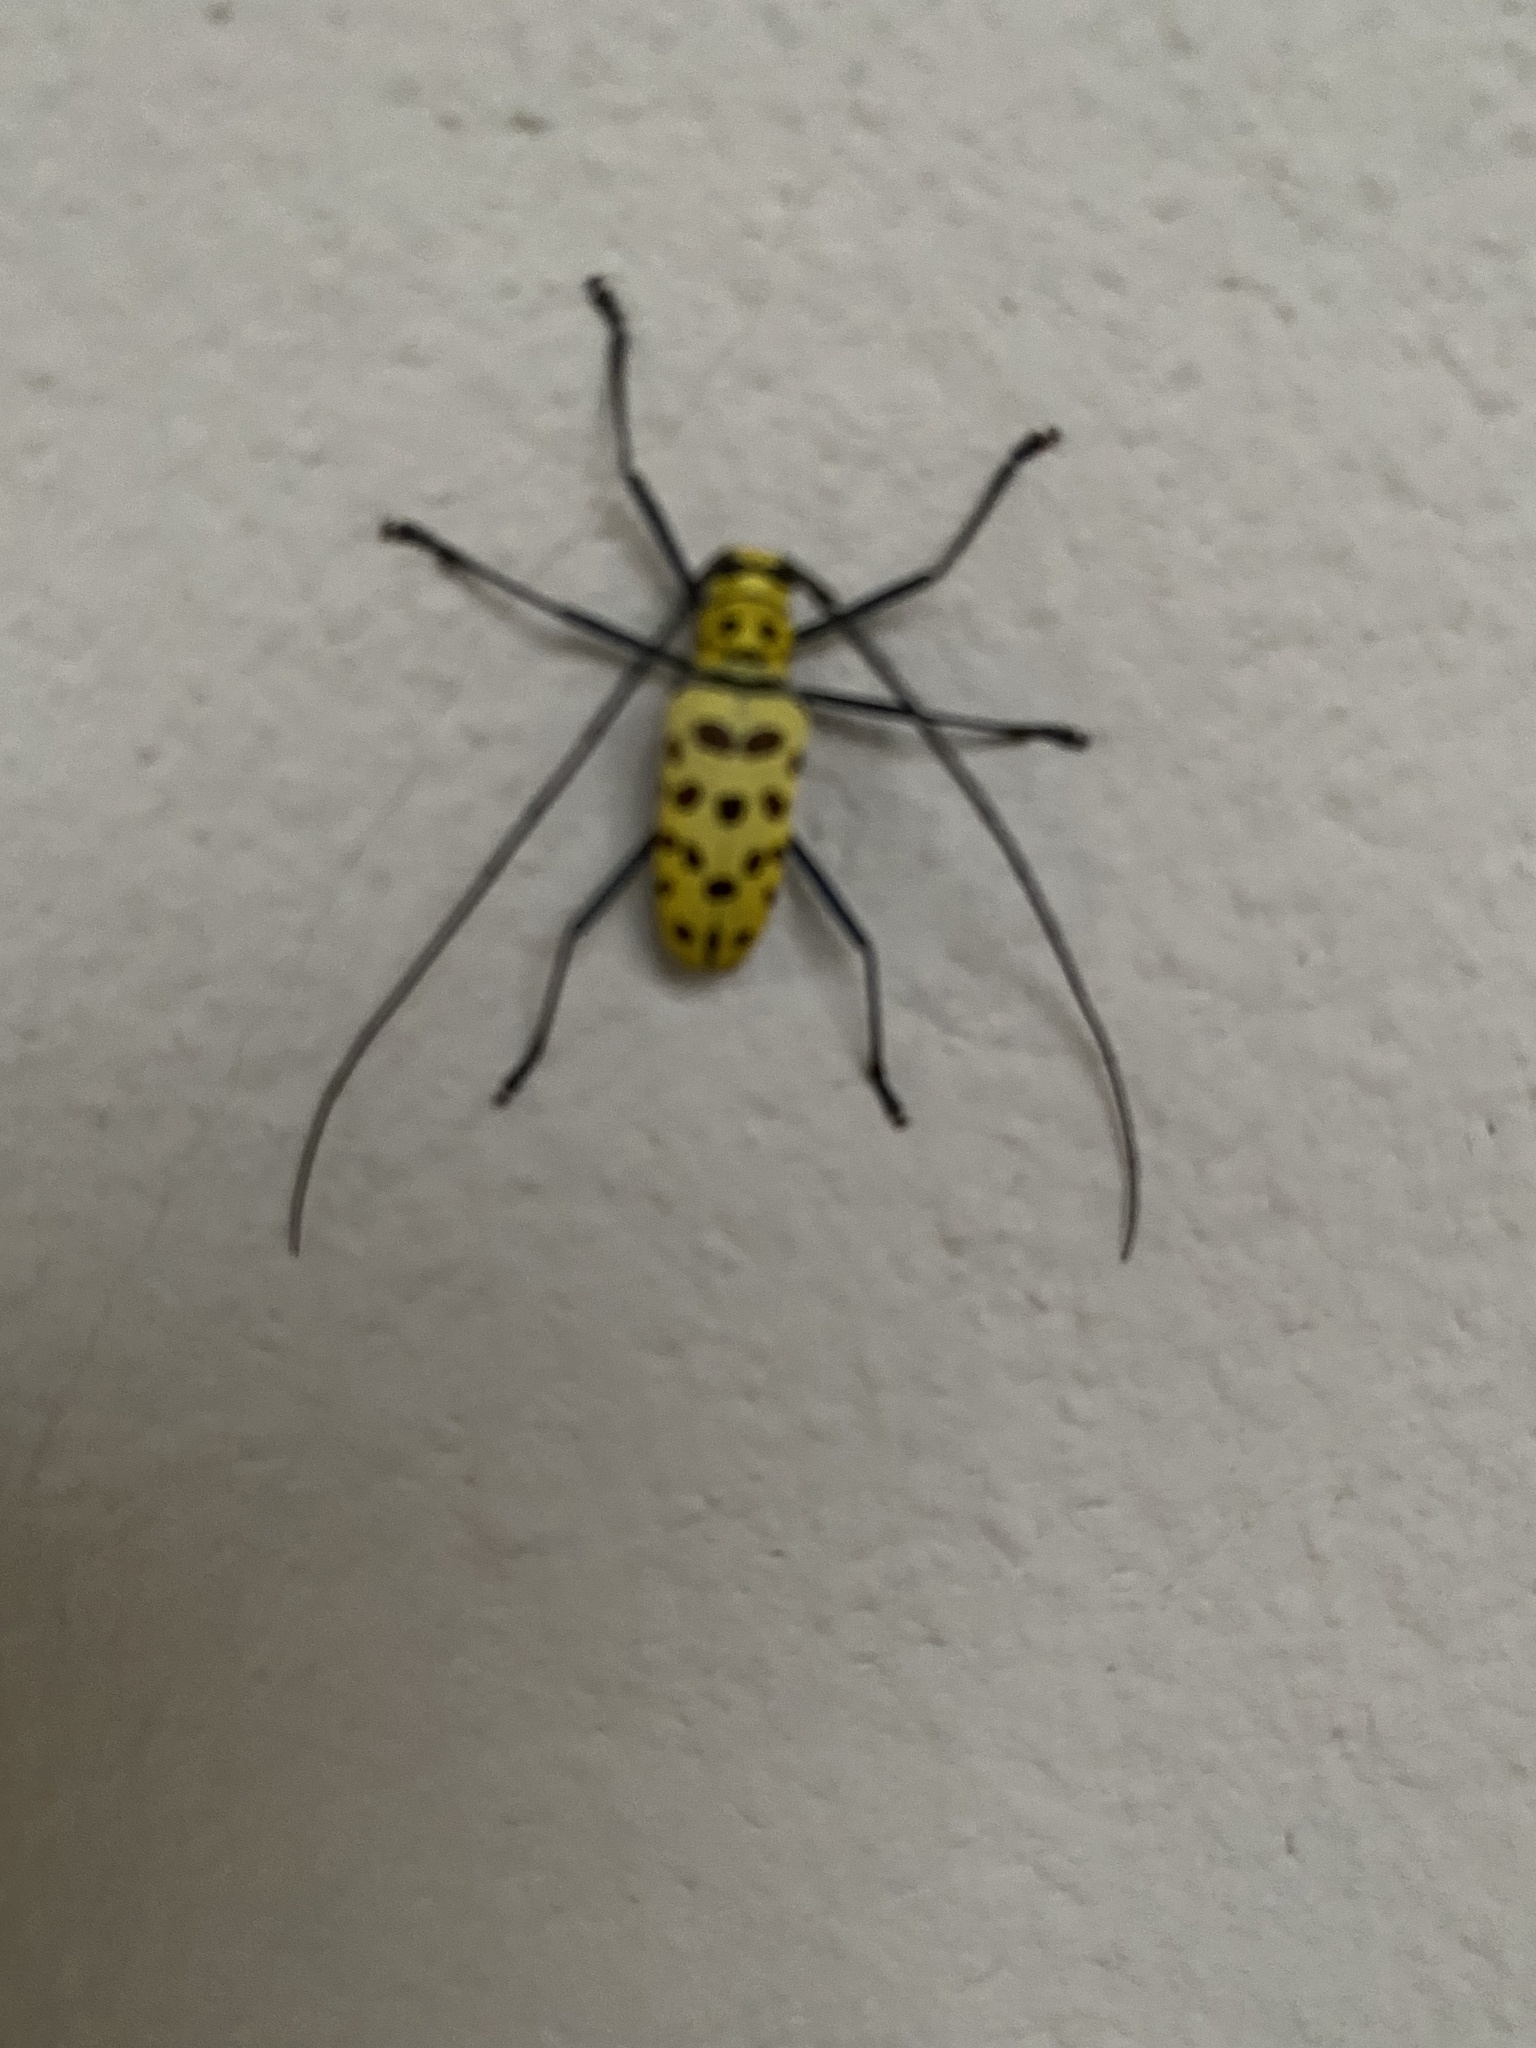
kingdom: Animalia
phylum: Arthropoda
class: Insecta
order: Coleoptera
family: Cerambycidae
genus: Gerania
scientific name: Gerania boscii
